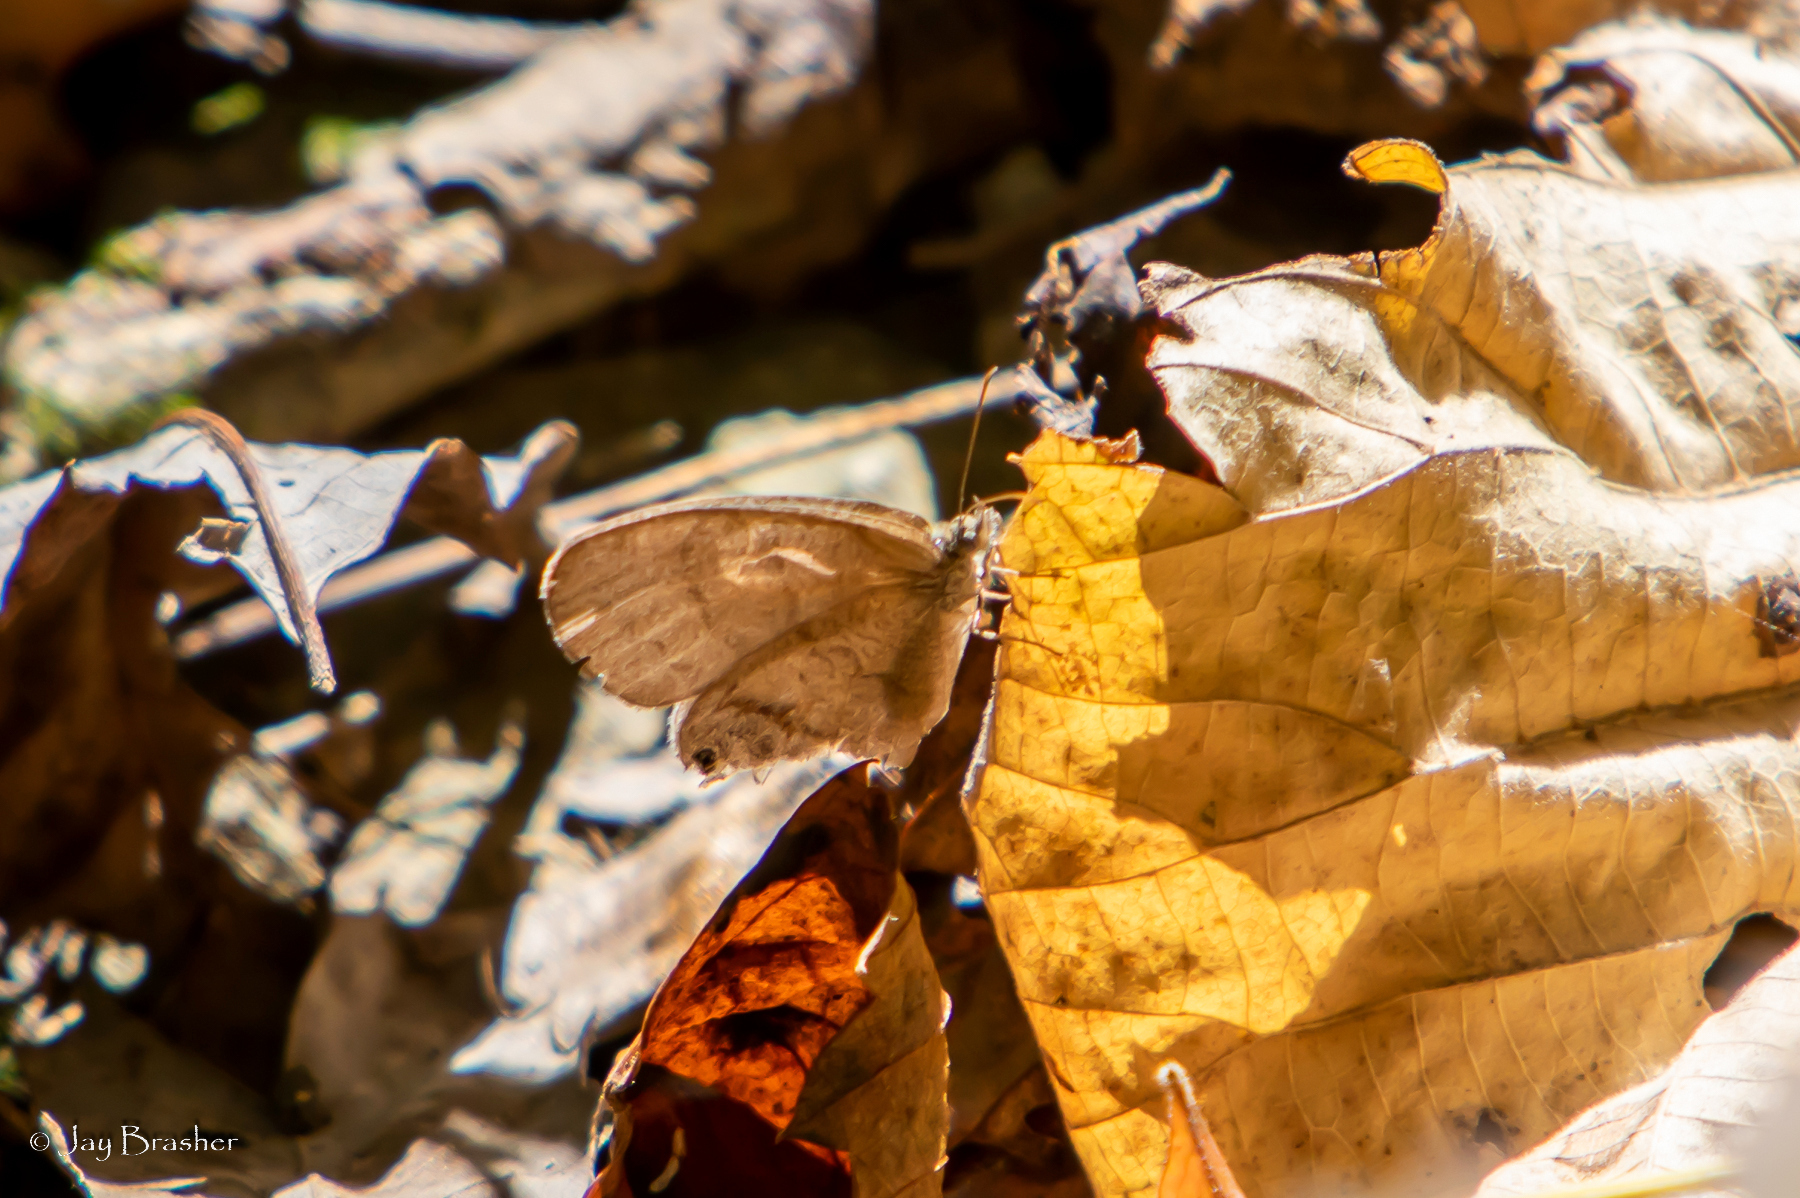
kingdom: Animalia
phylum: Arthropoda
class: Insecta
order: Lepidoptera
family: Nymphalidae
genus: Euptychia
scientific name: Euptychia cornelius
